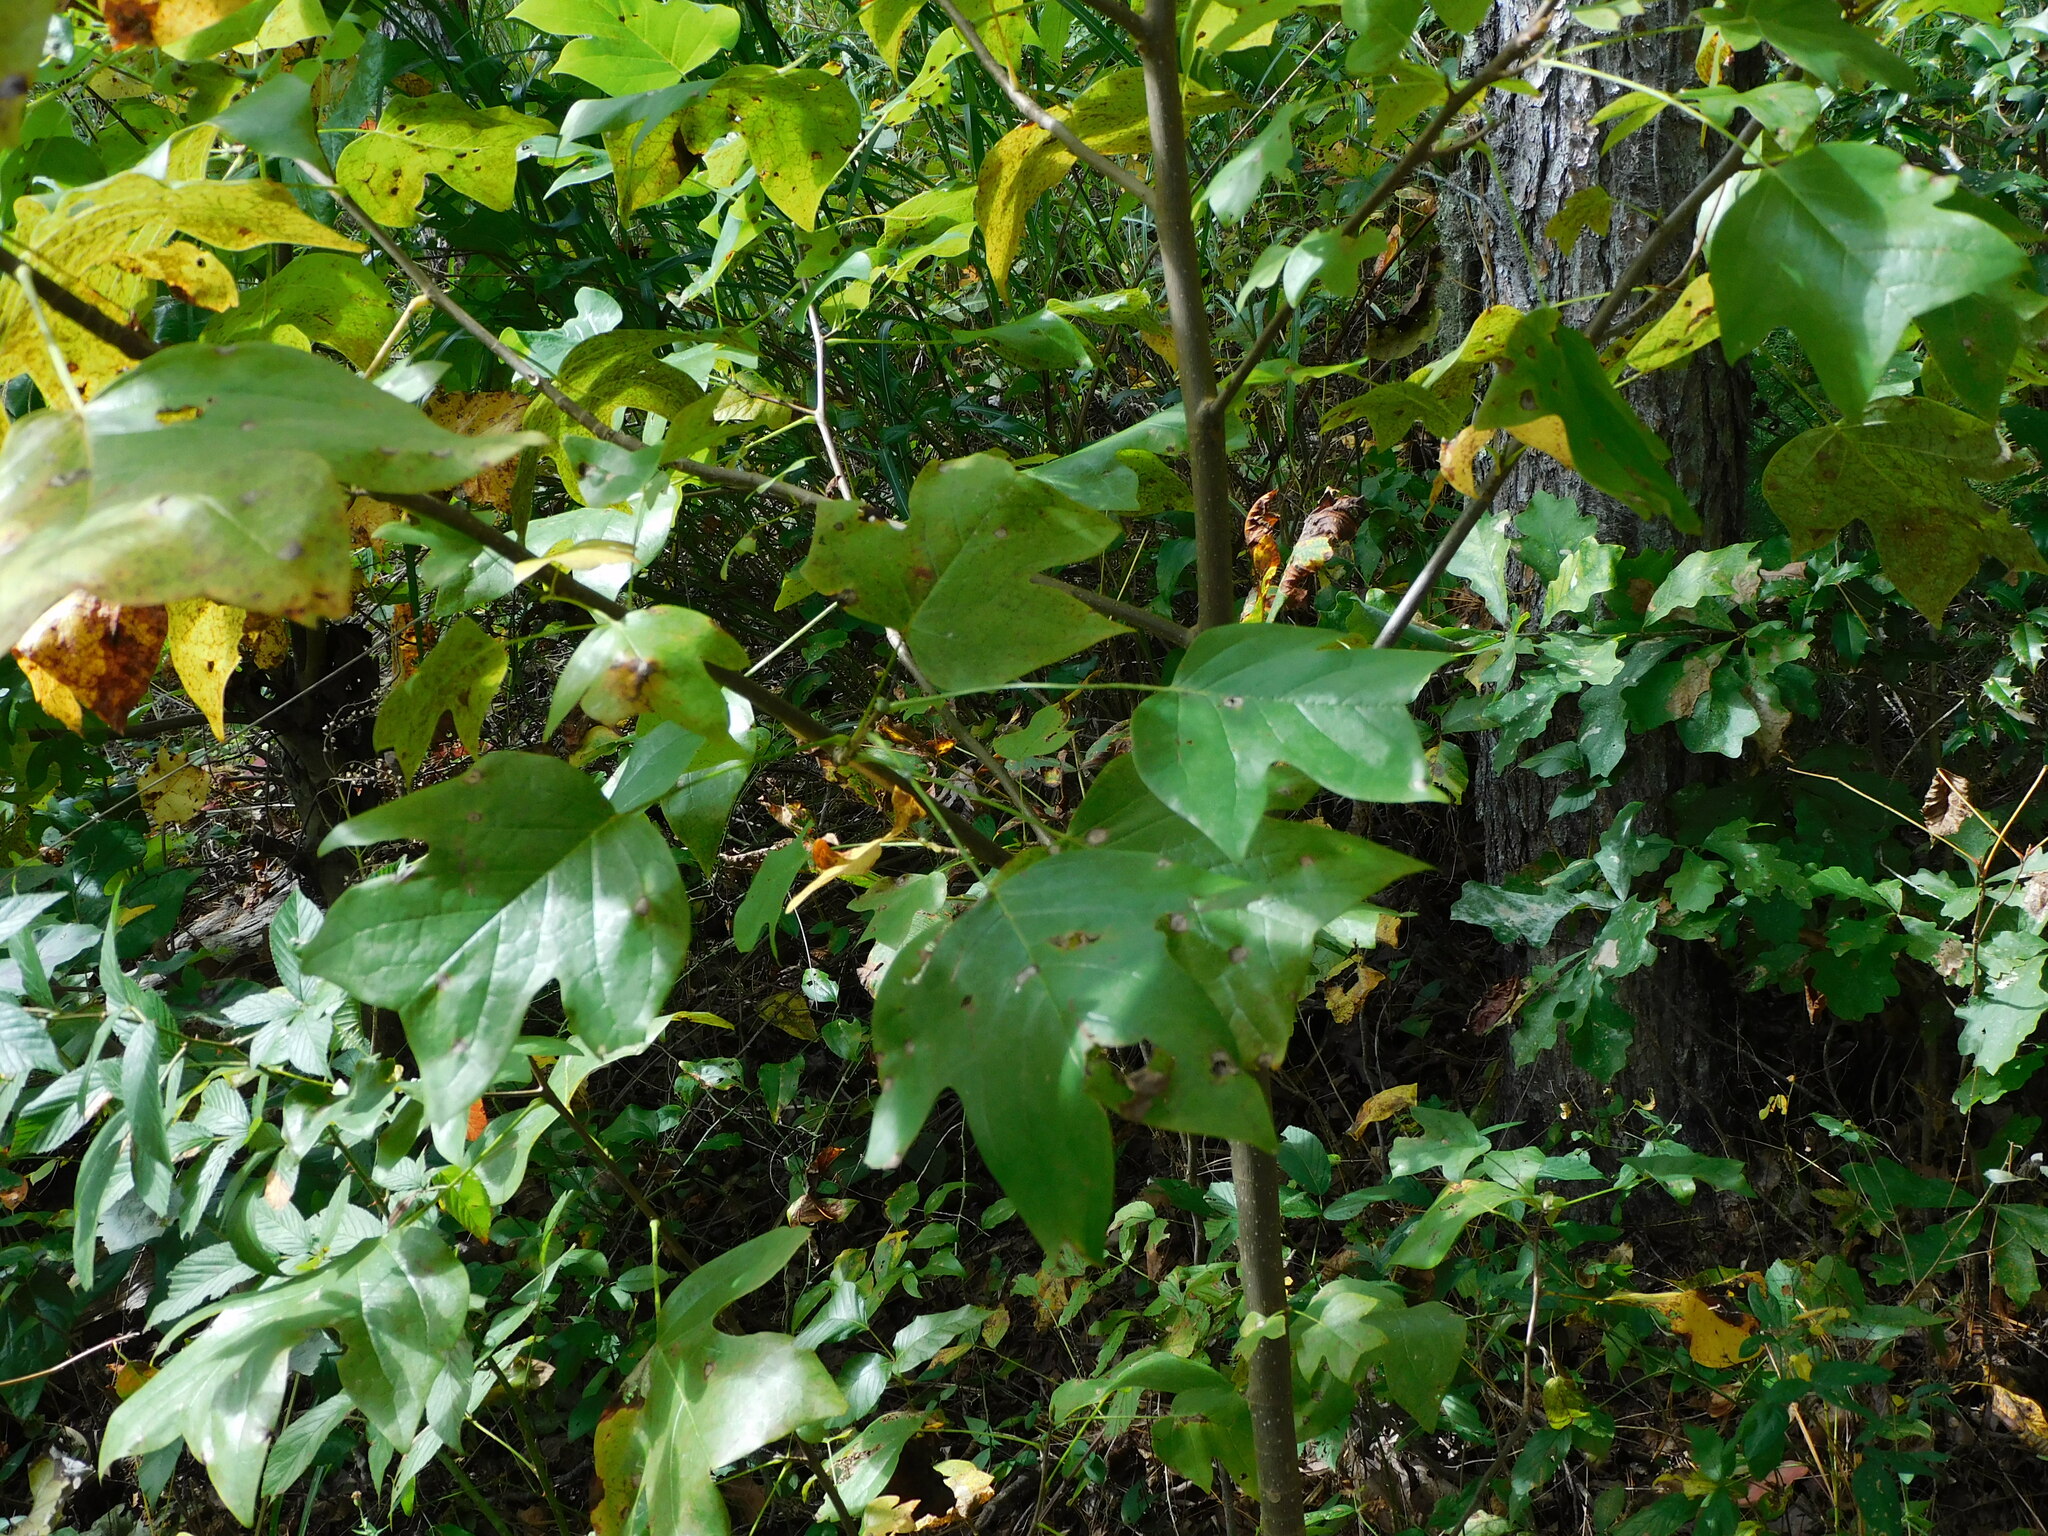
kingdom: Plantae
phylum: Tracheophyta
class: Magnoliopsida
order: Magnoliales
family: Magnoliaceae
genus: Liriodendron
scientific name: Liriodendron tulipifera
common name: Tulip tree
